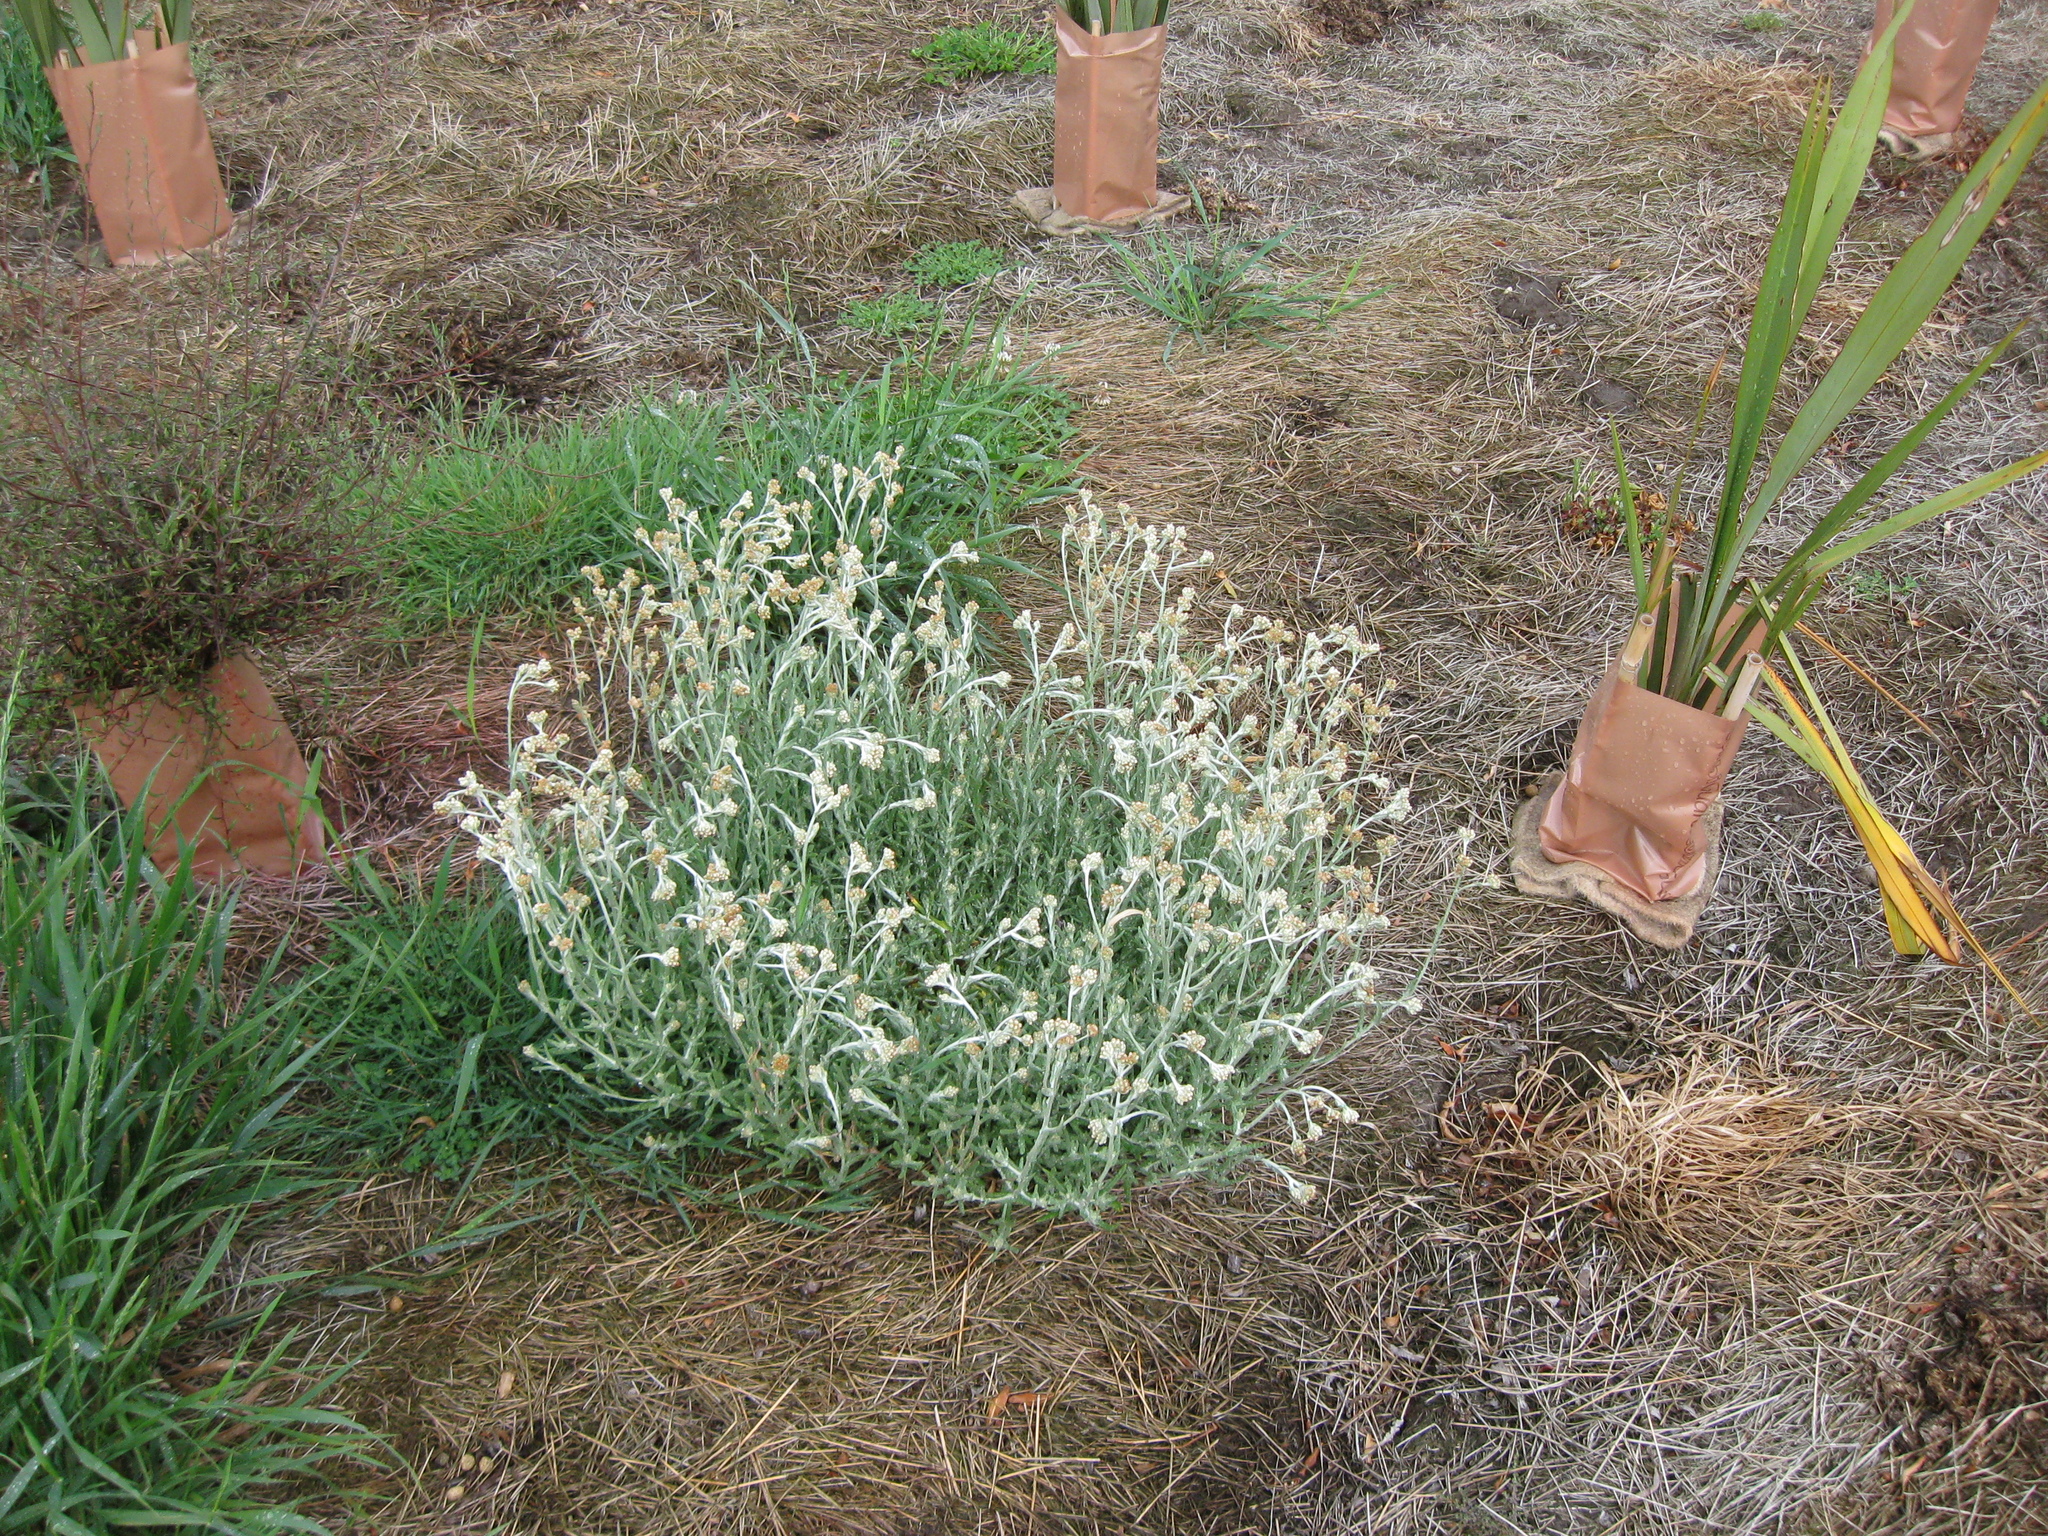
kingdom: Plantae
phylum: Tracheophyta
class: Magnoliopsida
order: Asterales
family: Asteraceae
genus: Helichrysum
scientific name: Helichrysum luteoalbum
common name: Daisy
